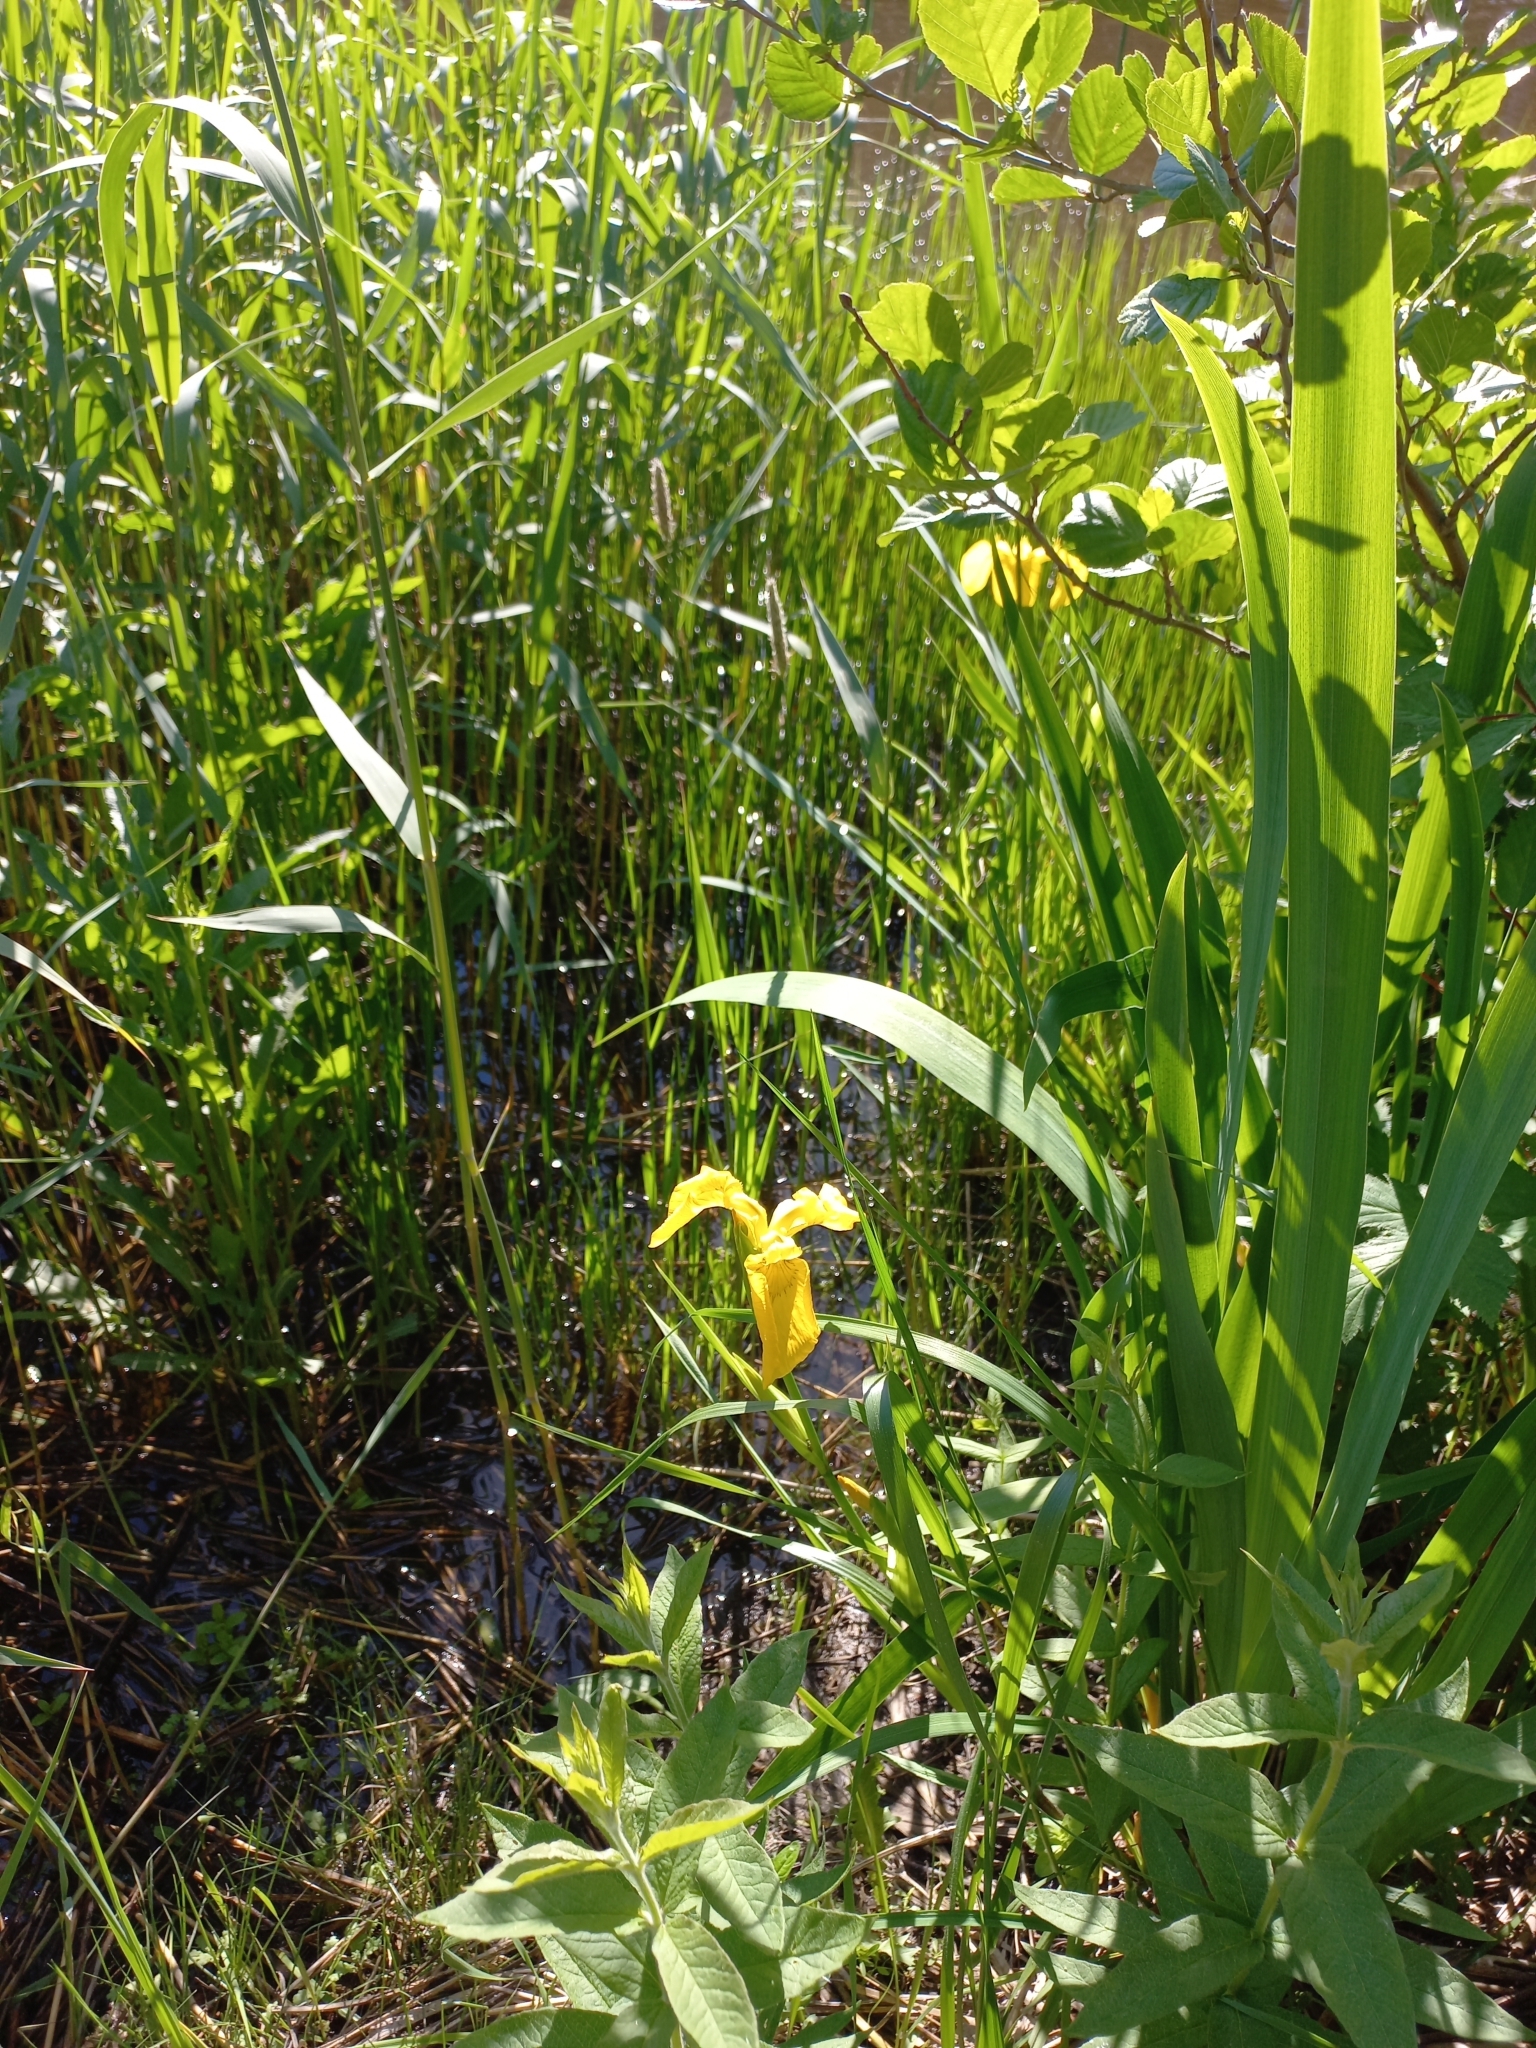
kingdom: Plantae
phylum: Tracheophyta
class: Liliopsida
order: Asparagales
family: Iridaceae
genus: Iris
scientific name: Iris pseudacorus
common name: Yellow flag
